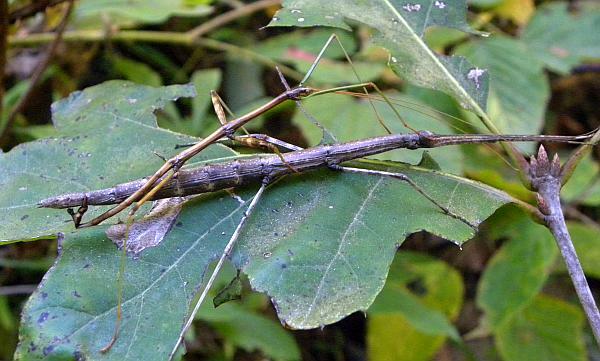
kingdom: Animalia
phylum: Arthropoda
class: Insecta
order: Phasmida
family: Diapheromeridae
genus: Diapheromera
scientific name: Diapheromera femorata
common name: Common american walkingstick
